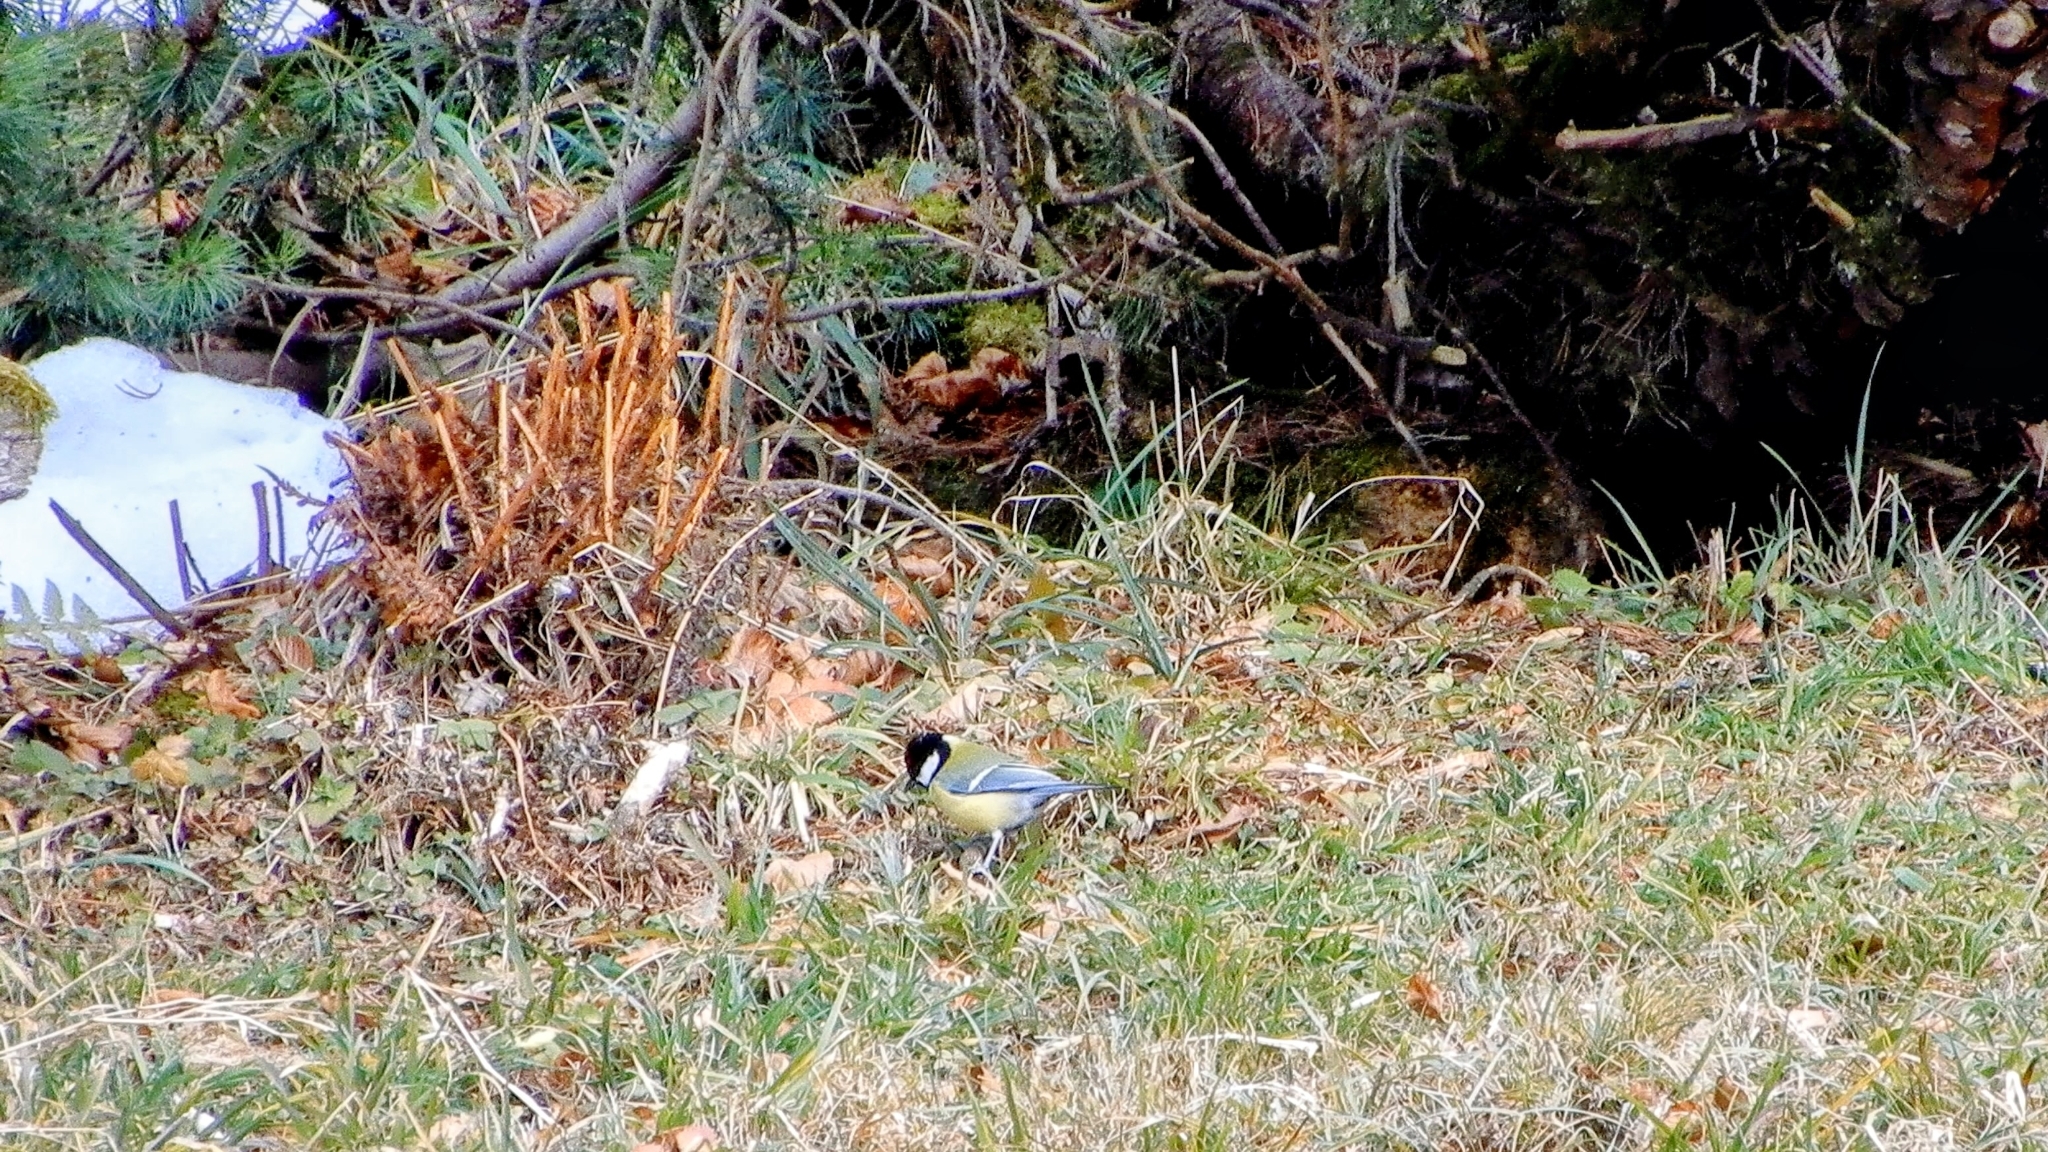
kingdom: Animalia
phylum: Chordata
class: Aves
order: Passeriformes
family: Paridae
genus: Parus
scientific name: Parus major
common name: Great tit
